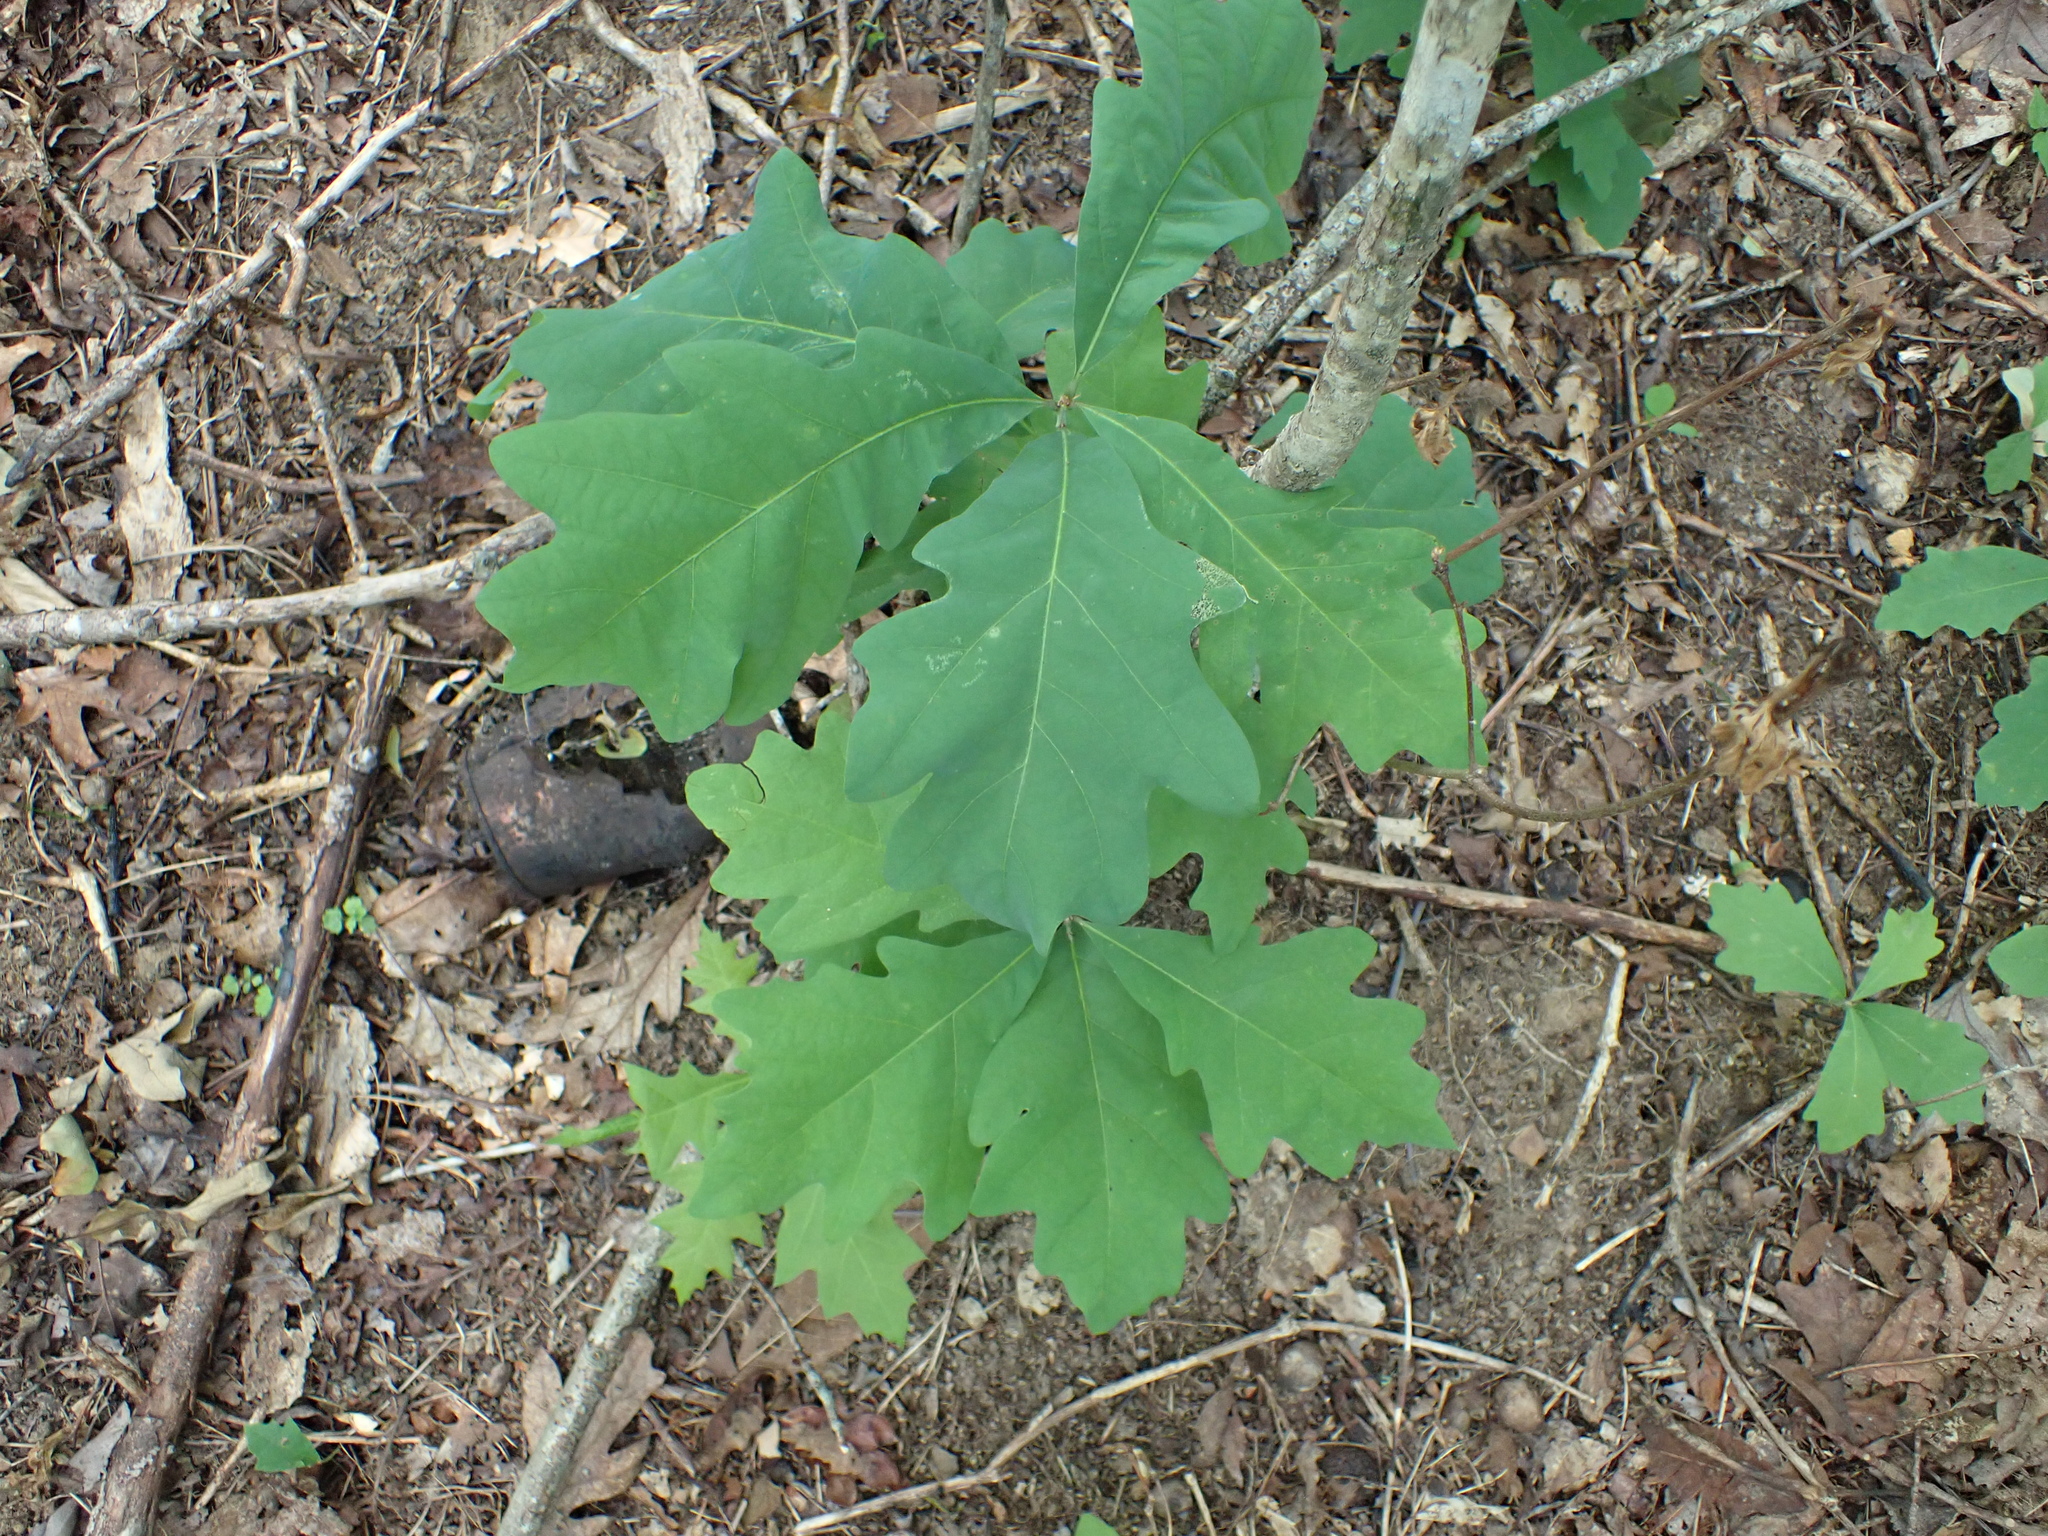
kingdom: Plantae
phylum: Tracheophyta
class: Magnoliopsida
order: Fagales
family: Fagaceae
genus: Quercus
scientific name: Quercus alba
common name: White oak
